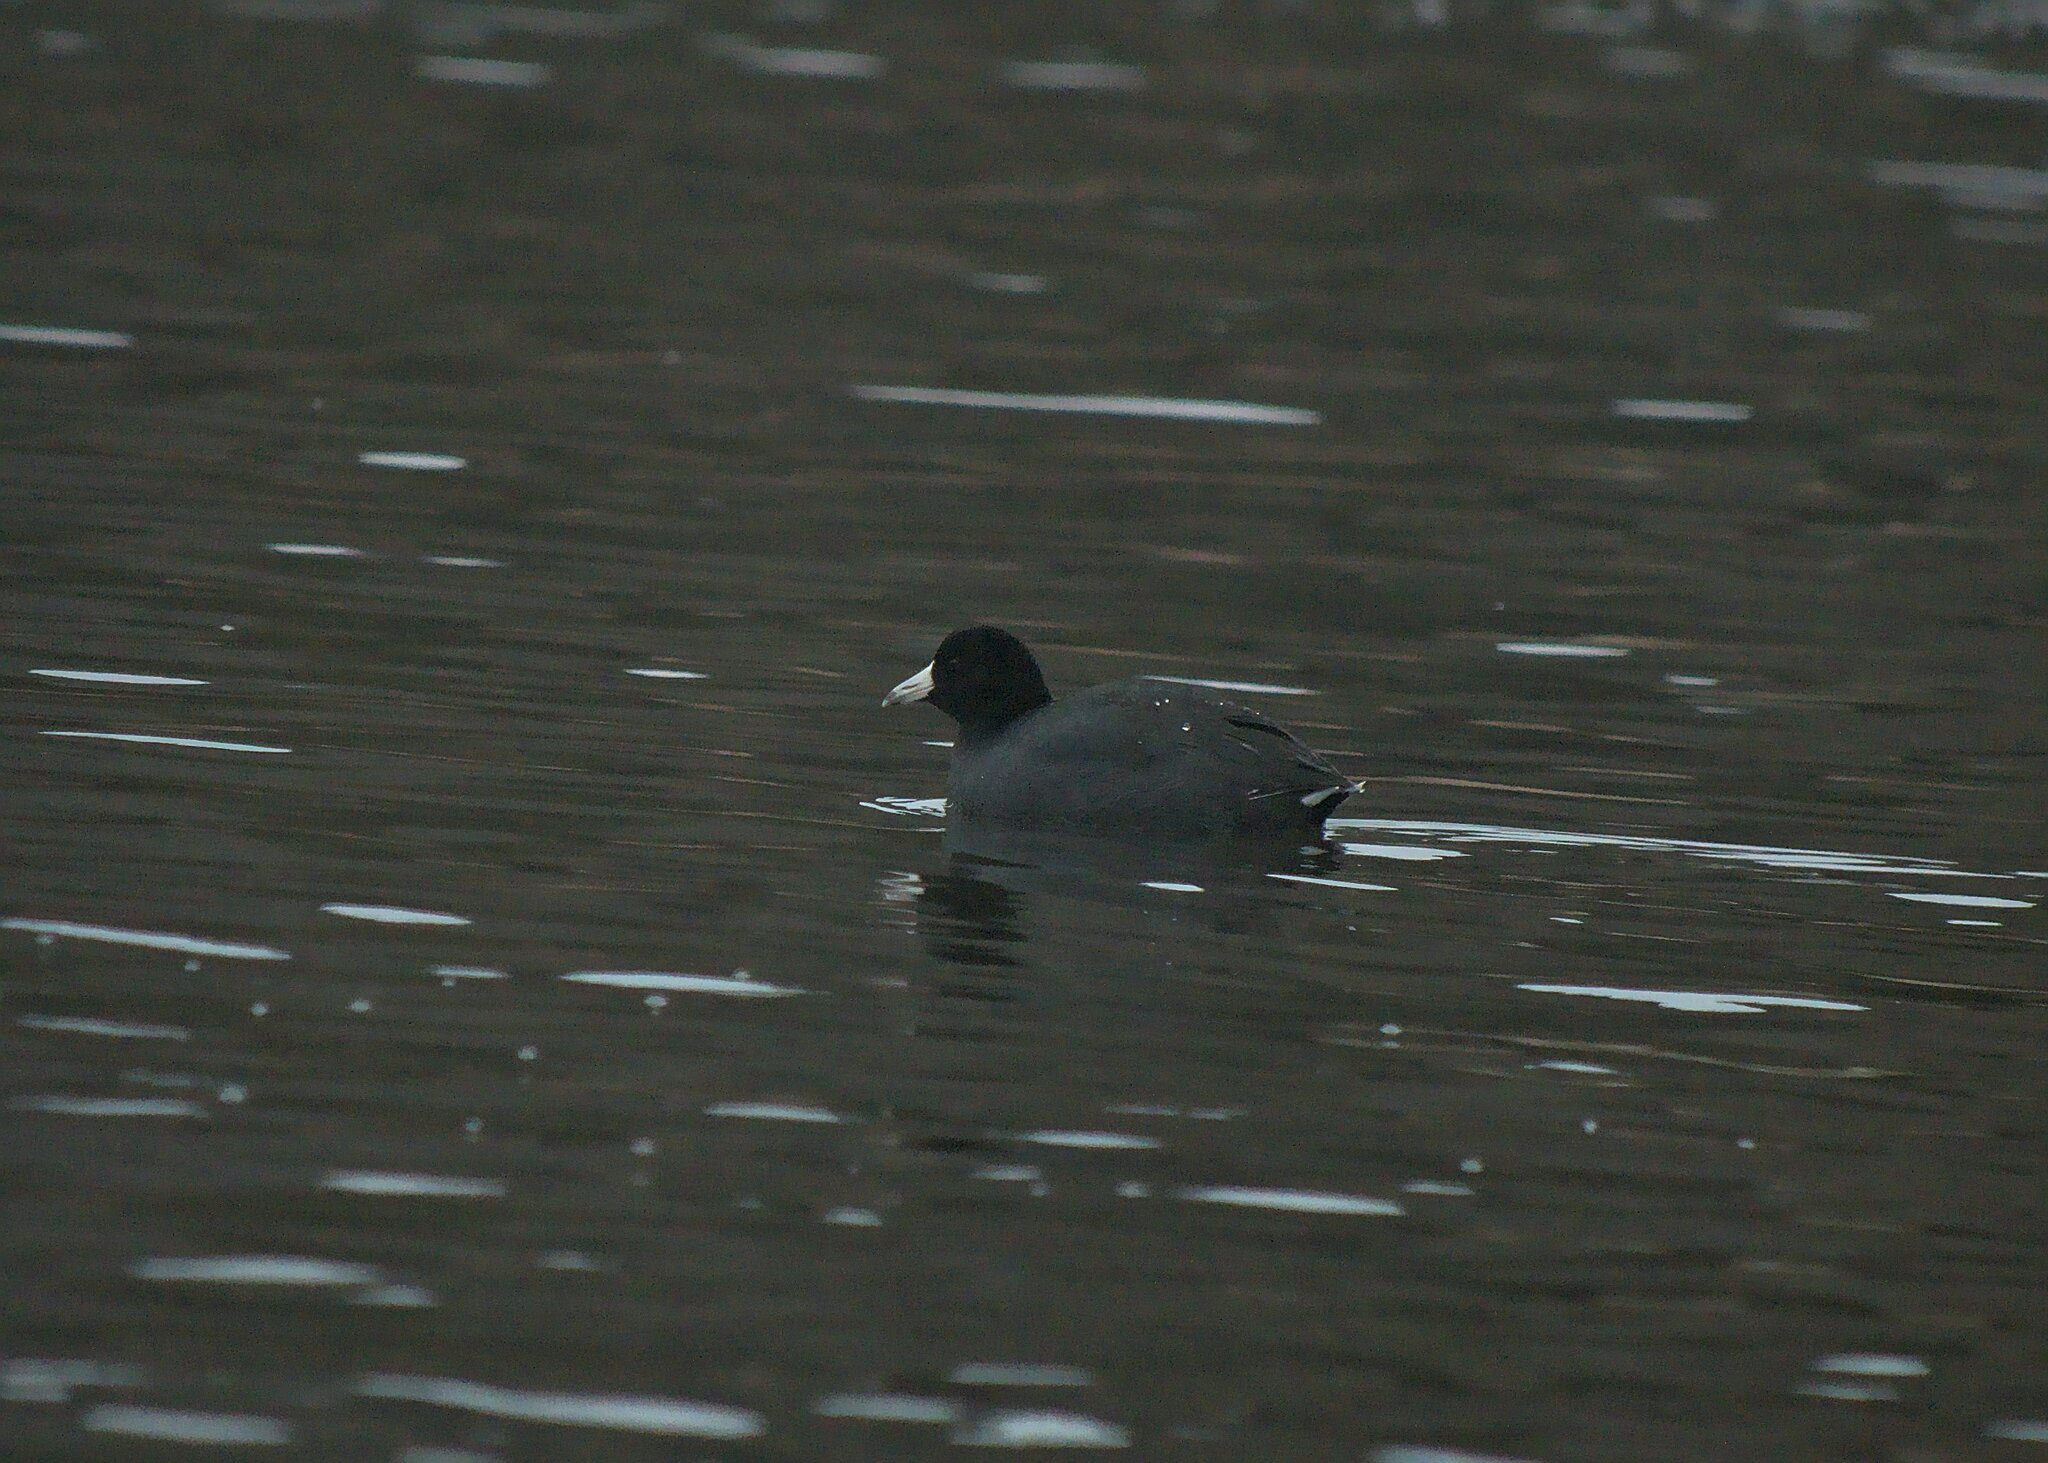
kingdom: Animalia
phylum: Chordata
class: Aves
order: Gruiformes
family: Rallidae
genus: Fulica
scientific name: Fulica americana
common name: American coot
